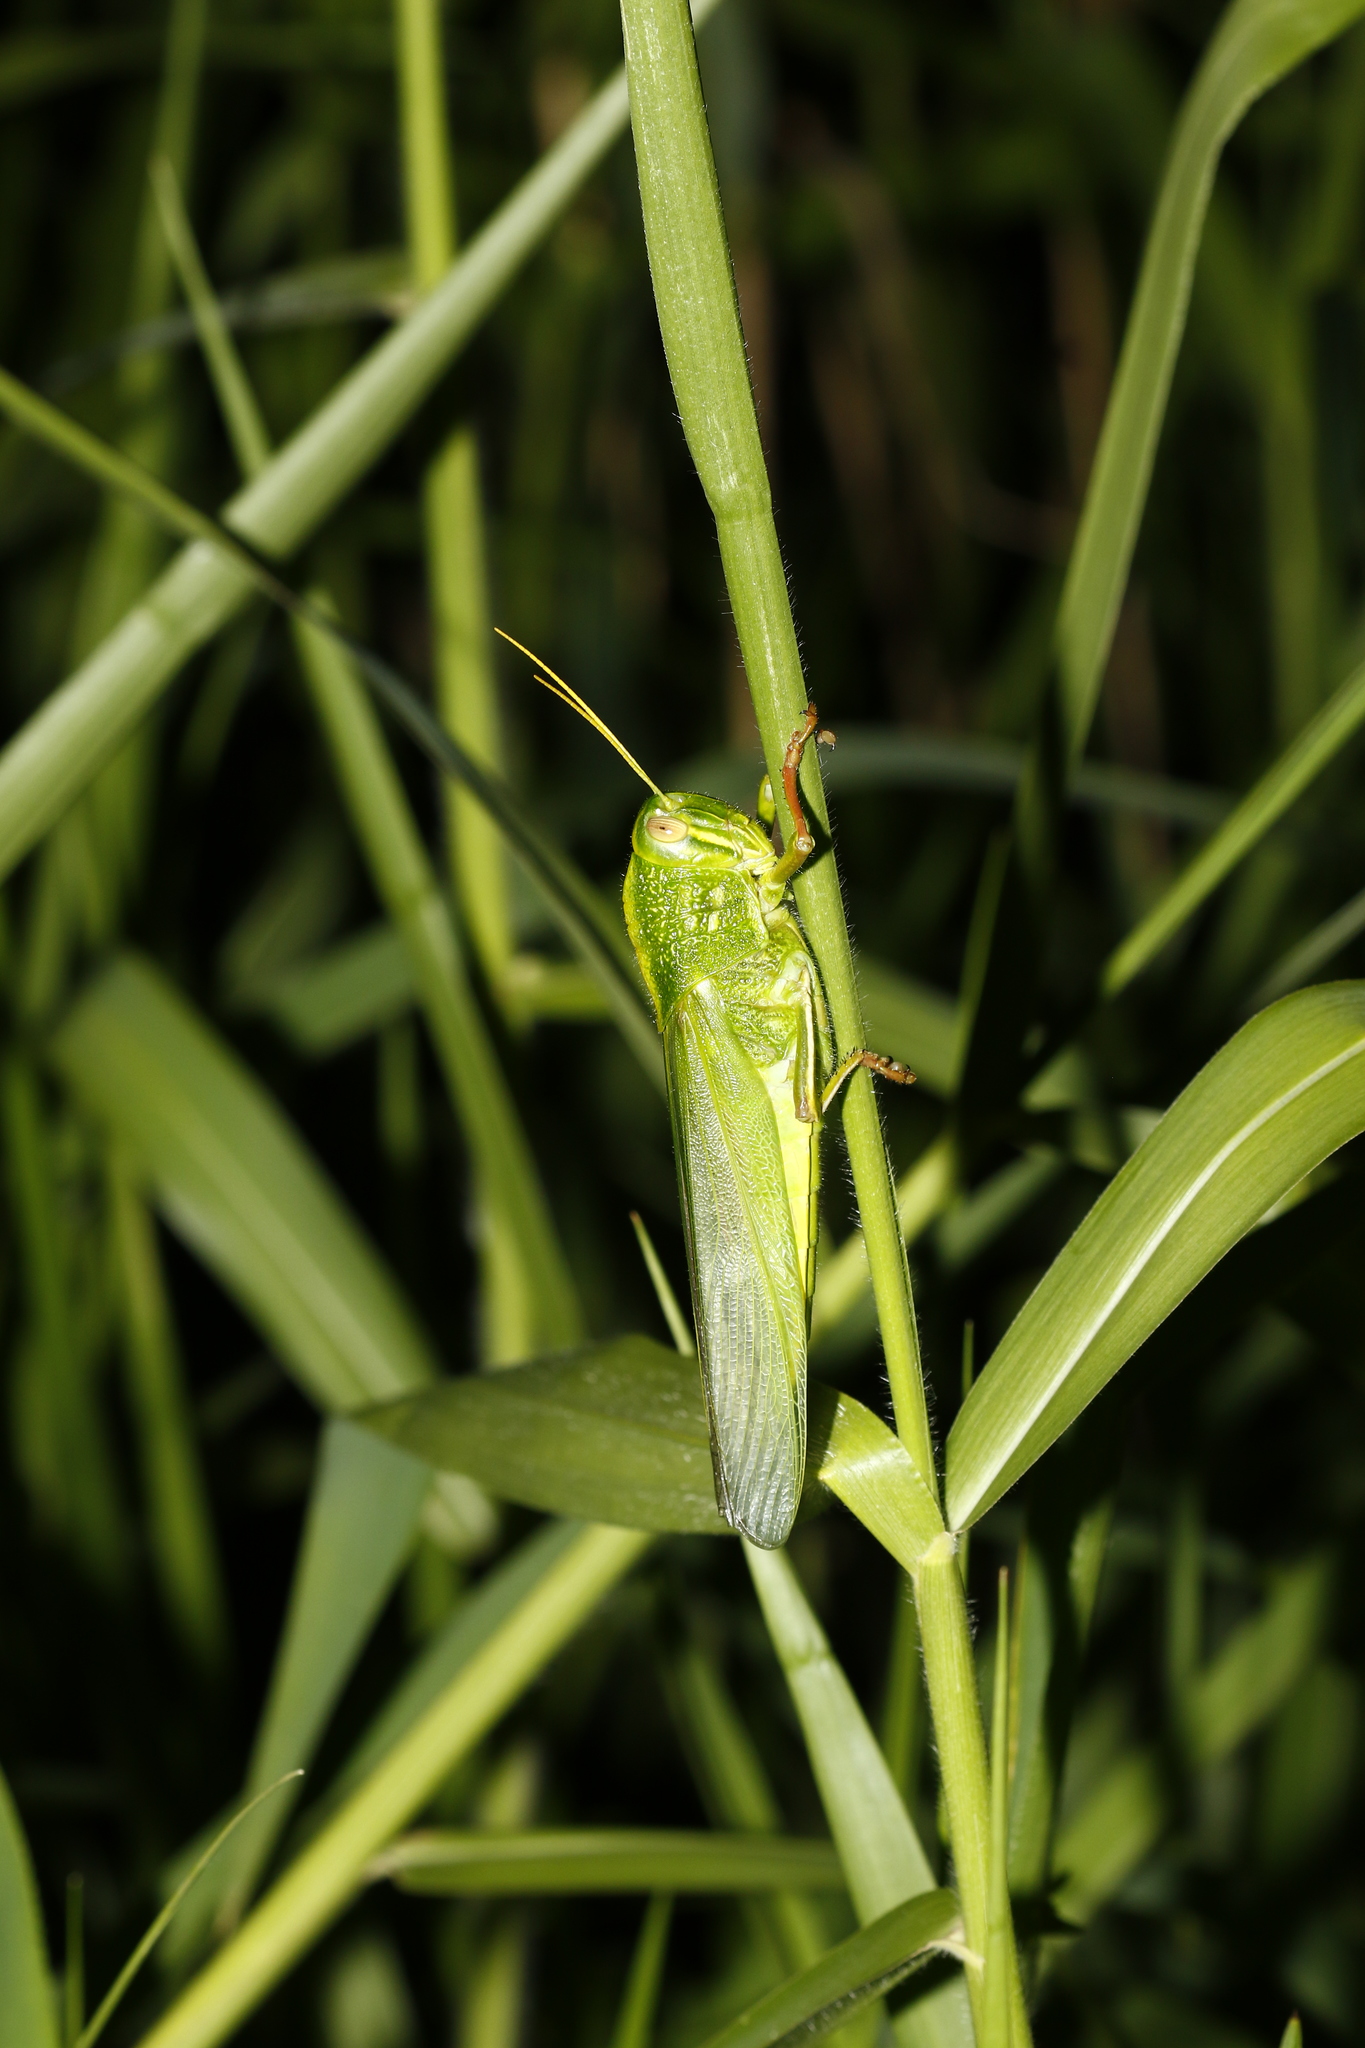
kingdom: Animalia
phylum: Arthropoda
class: Insecta
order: Orthoptera
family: Acrididae
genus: Chondracris
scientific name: Chondracris rosea
